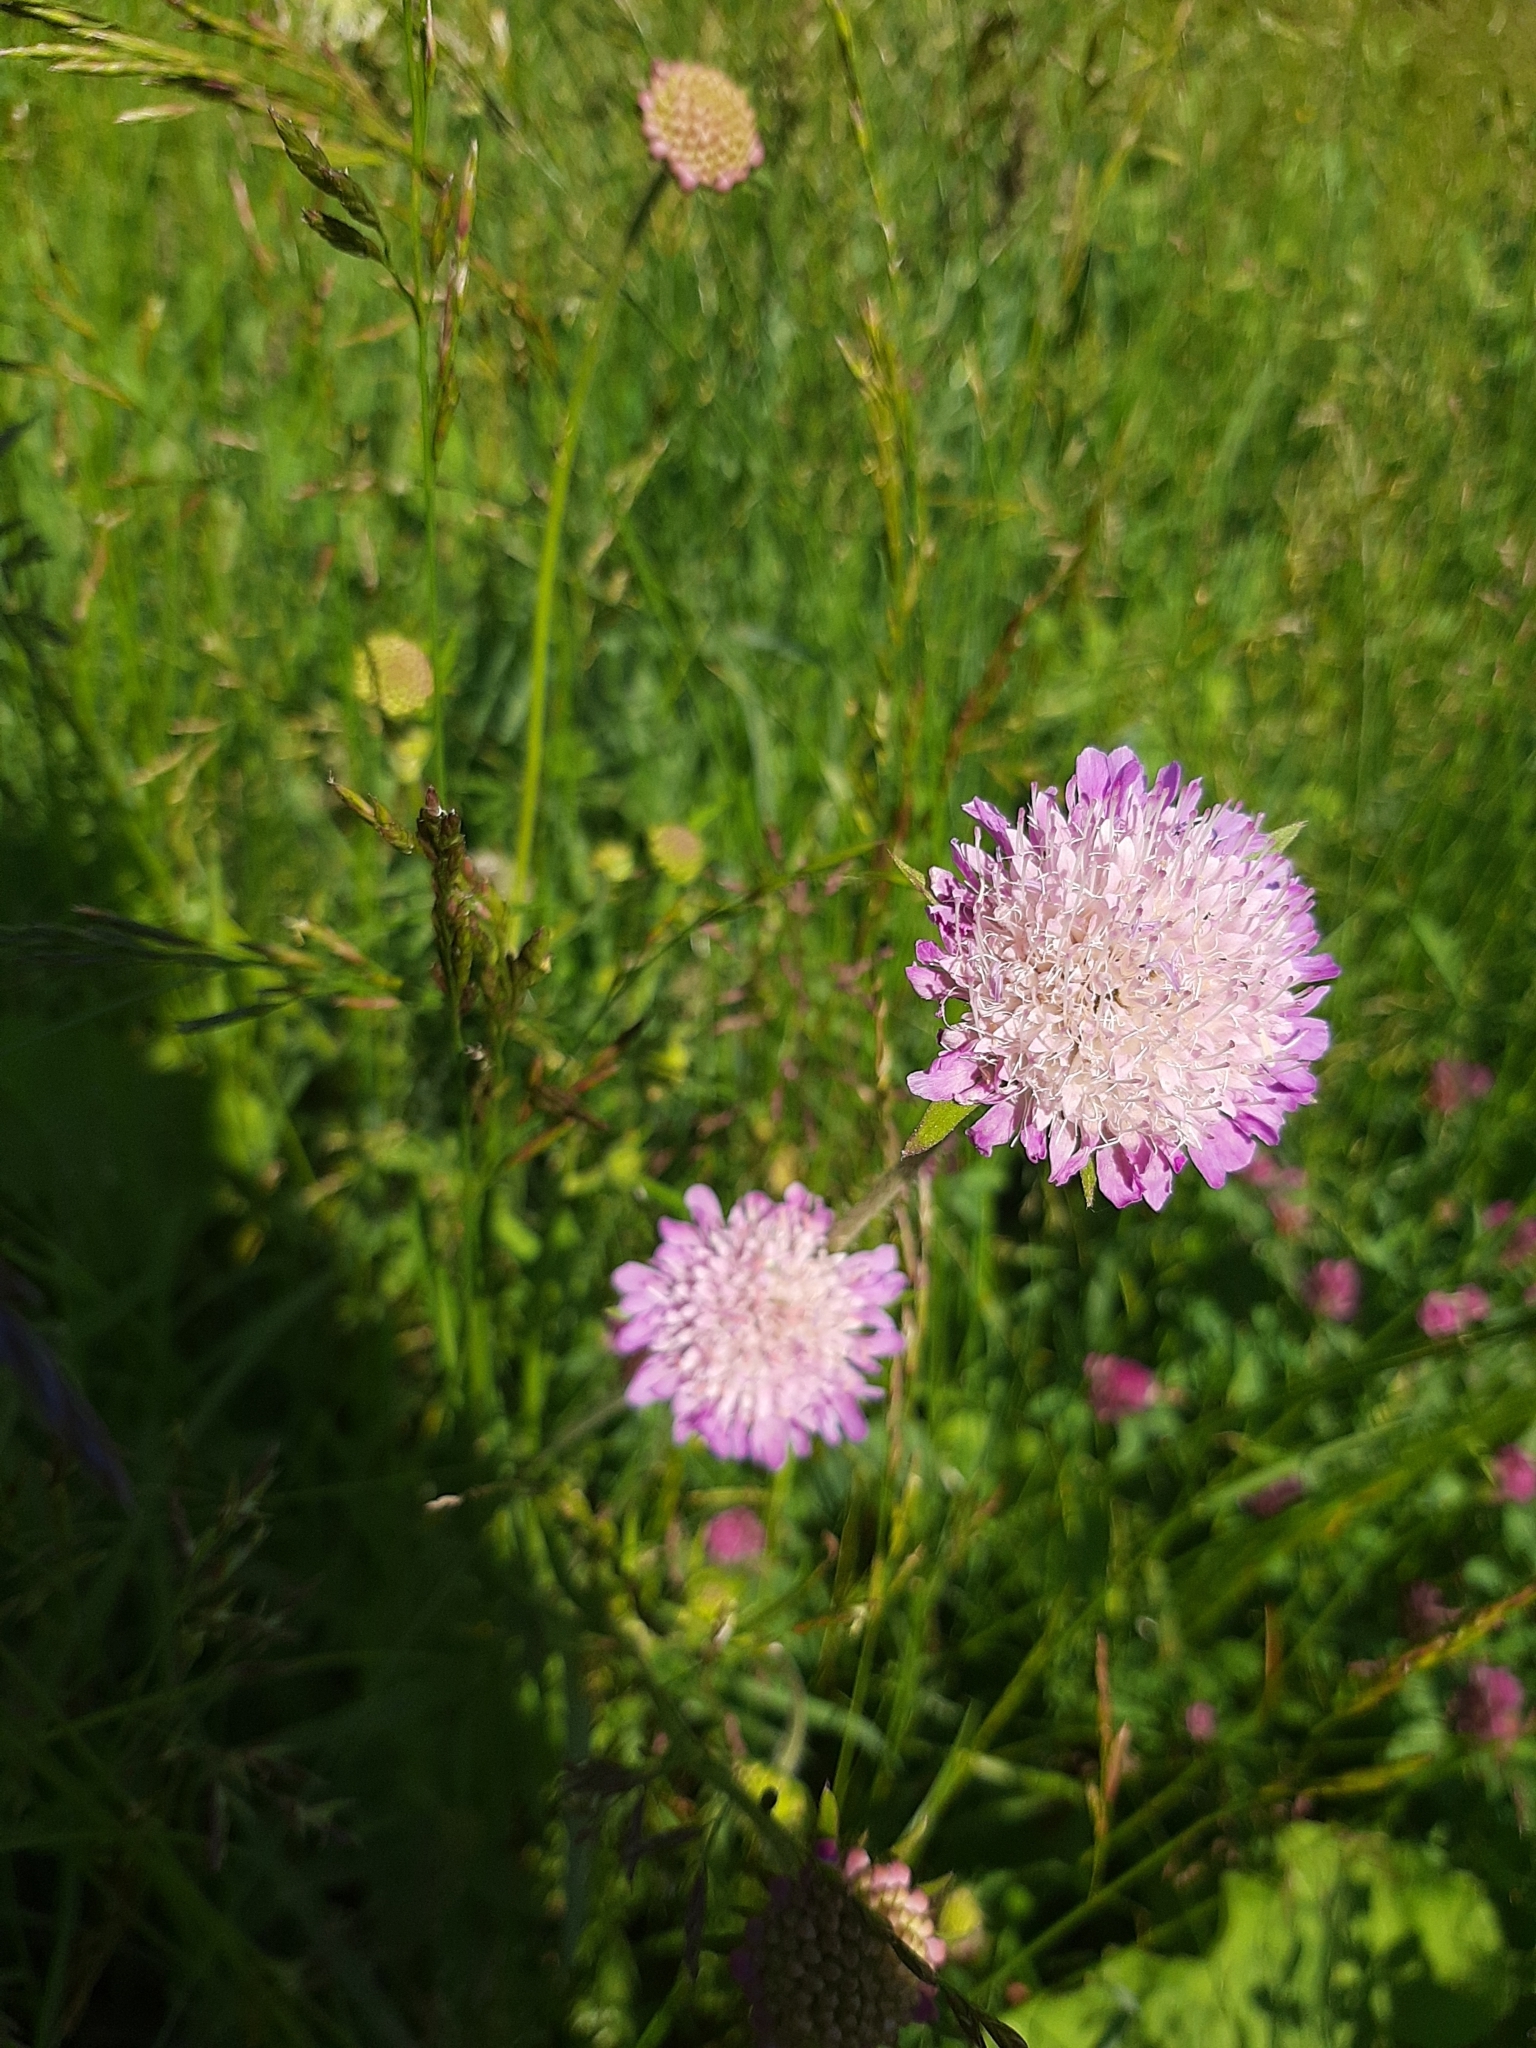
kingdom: Plantae
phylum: Tracheophyta
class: Magnoliopsida
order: Dipsacales
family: Caprifoliaceae
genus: Knautia
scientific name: Knautia arvensis
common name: Field scabiosa
